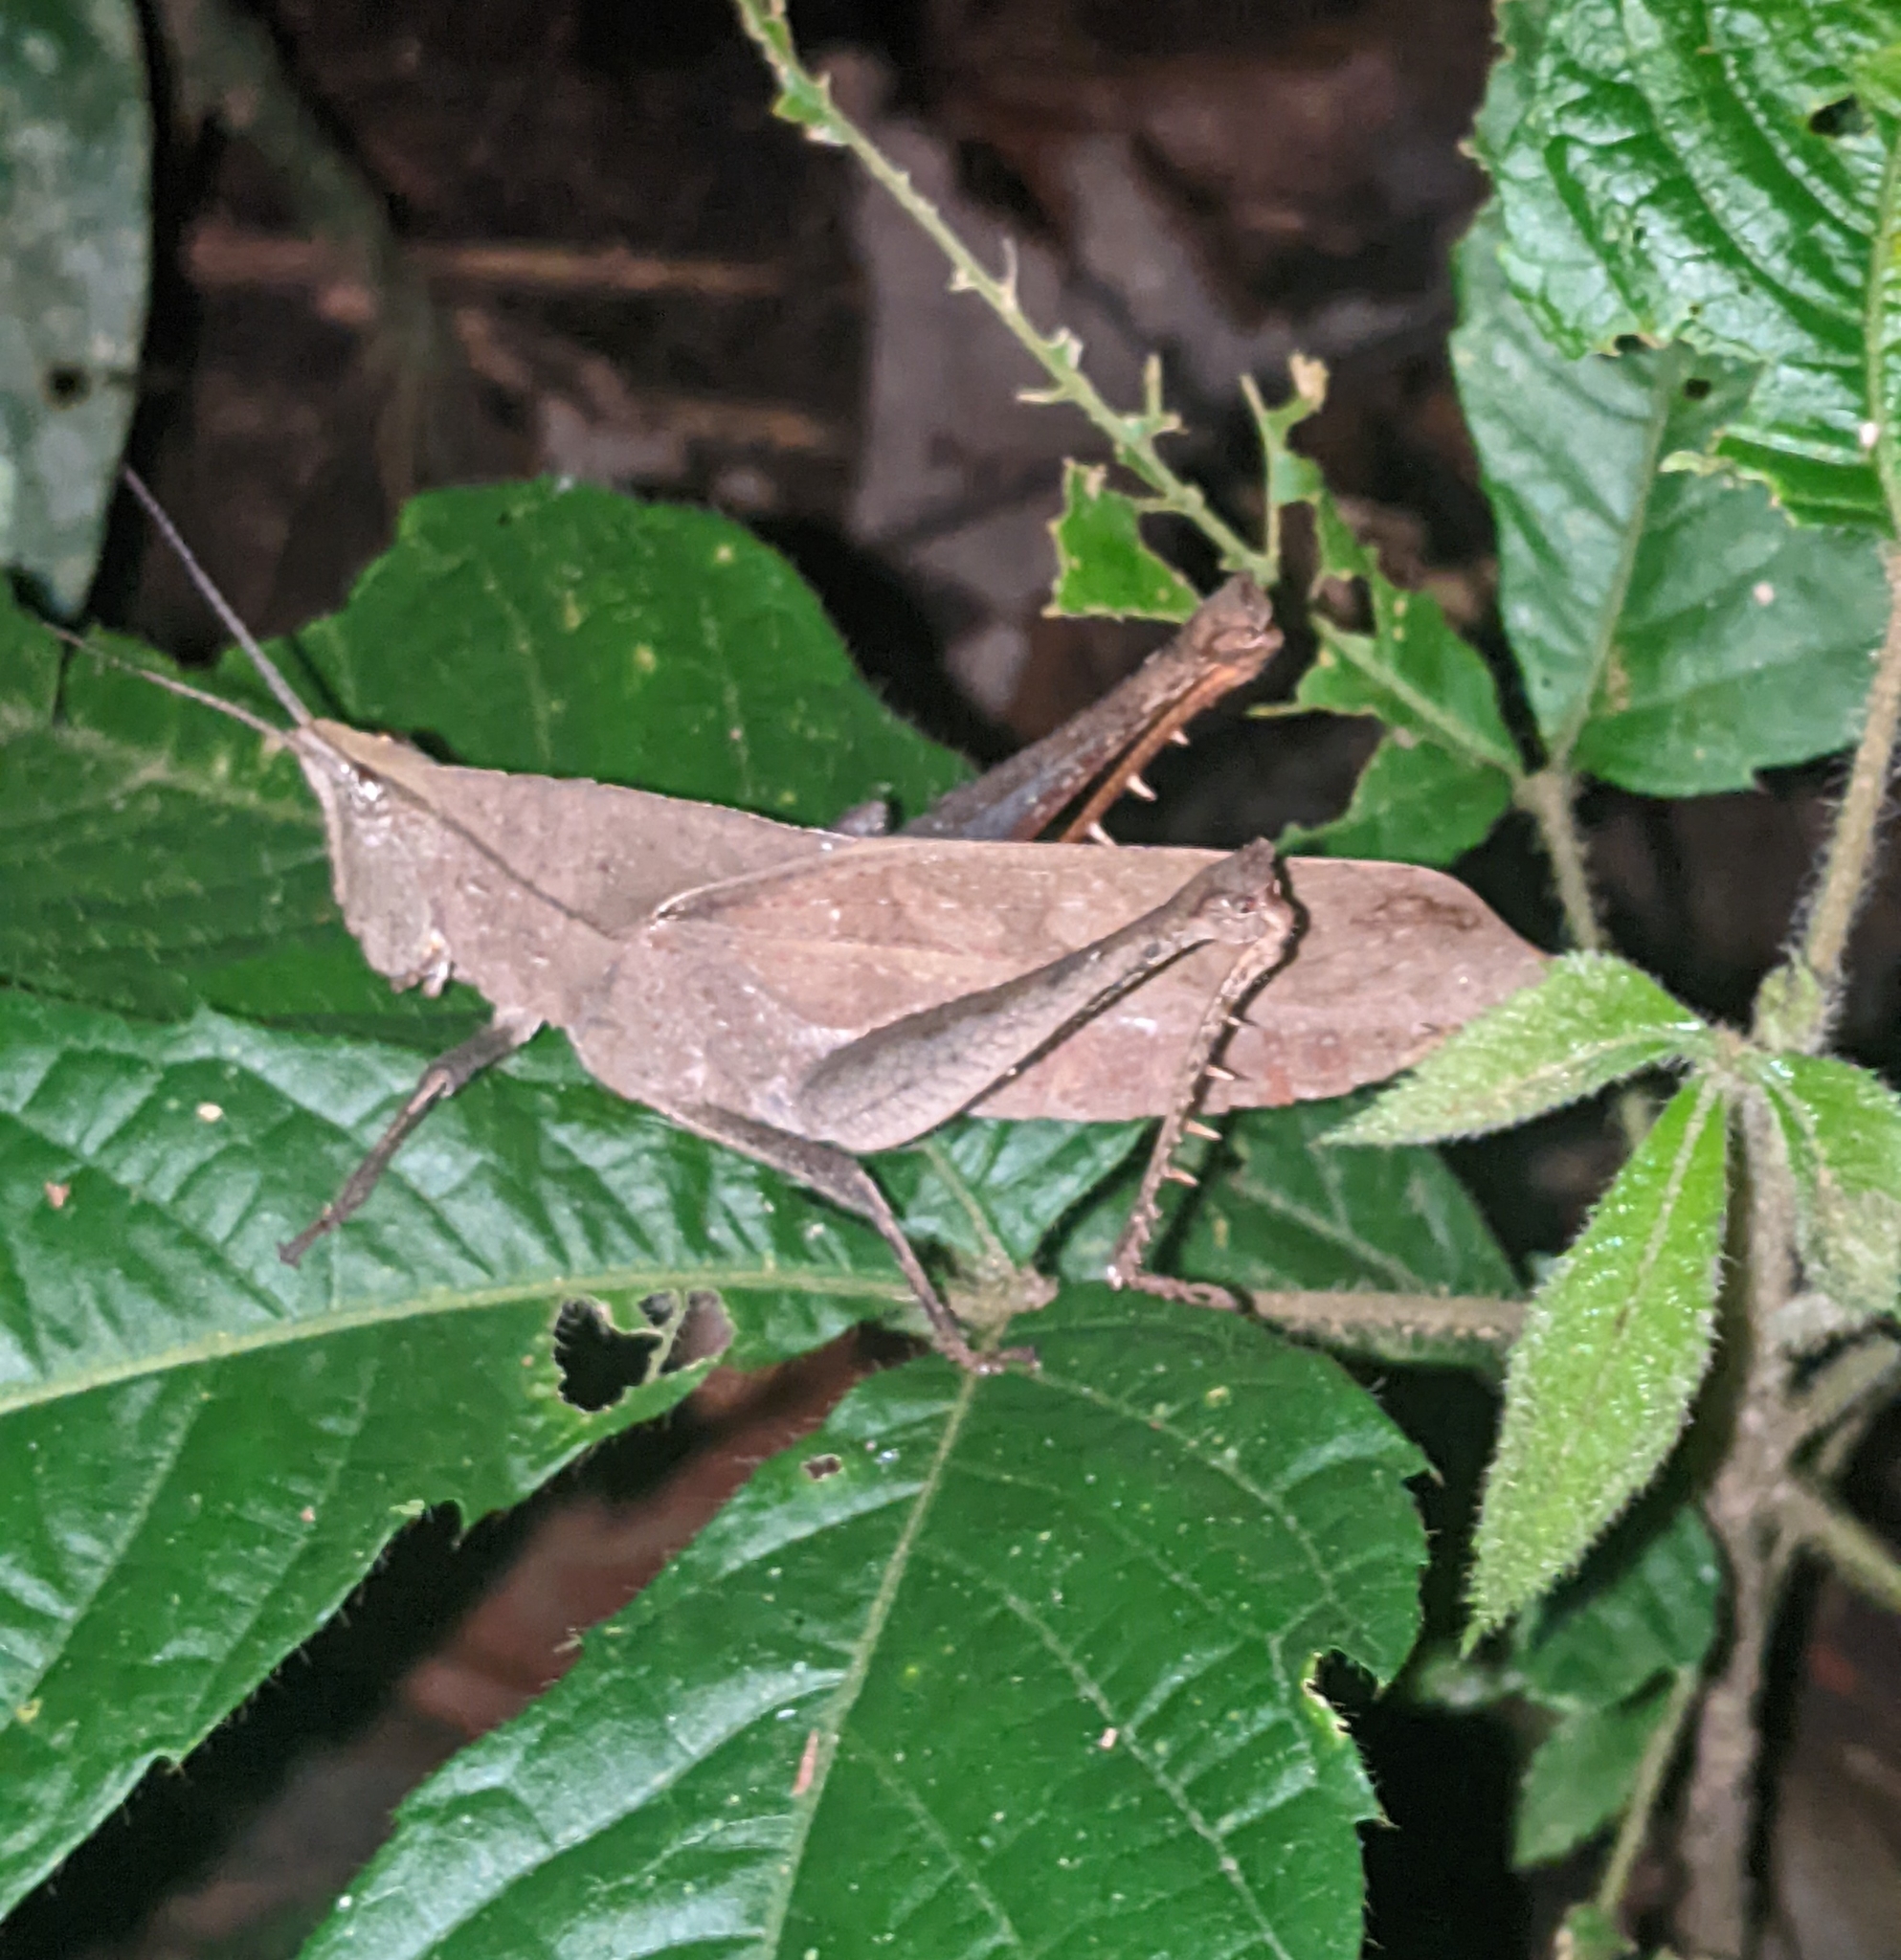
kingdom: Animalia
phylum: Arthropoda
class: Insecta
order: Orthoptera
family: Romaleidae
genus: Colpolopha
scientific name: Colpolopha latipennis
